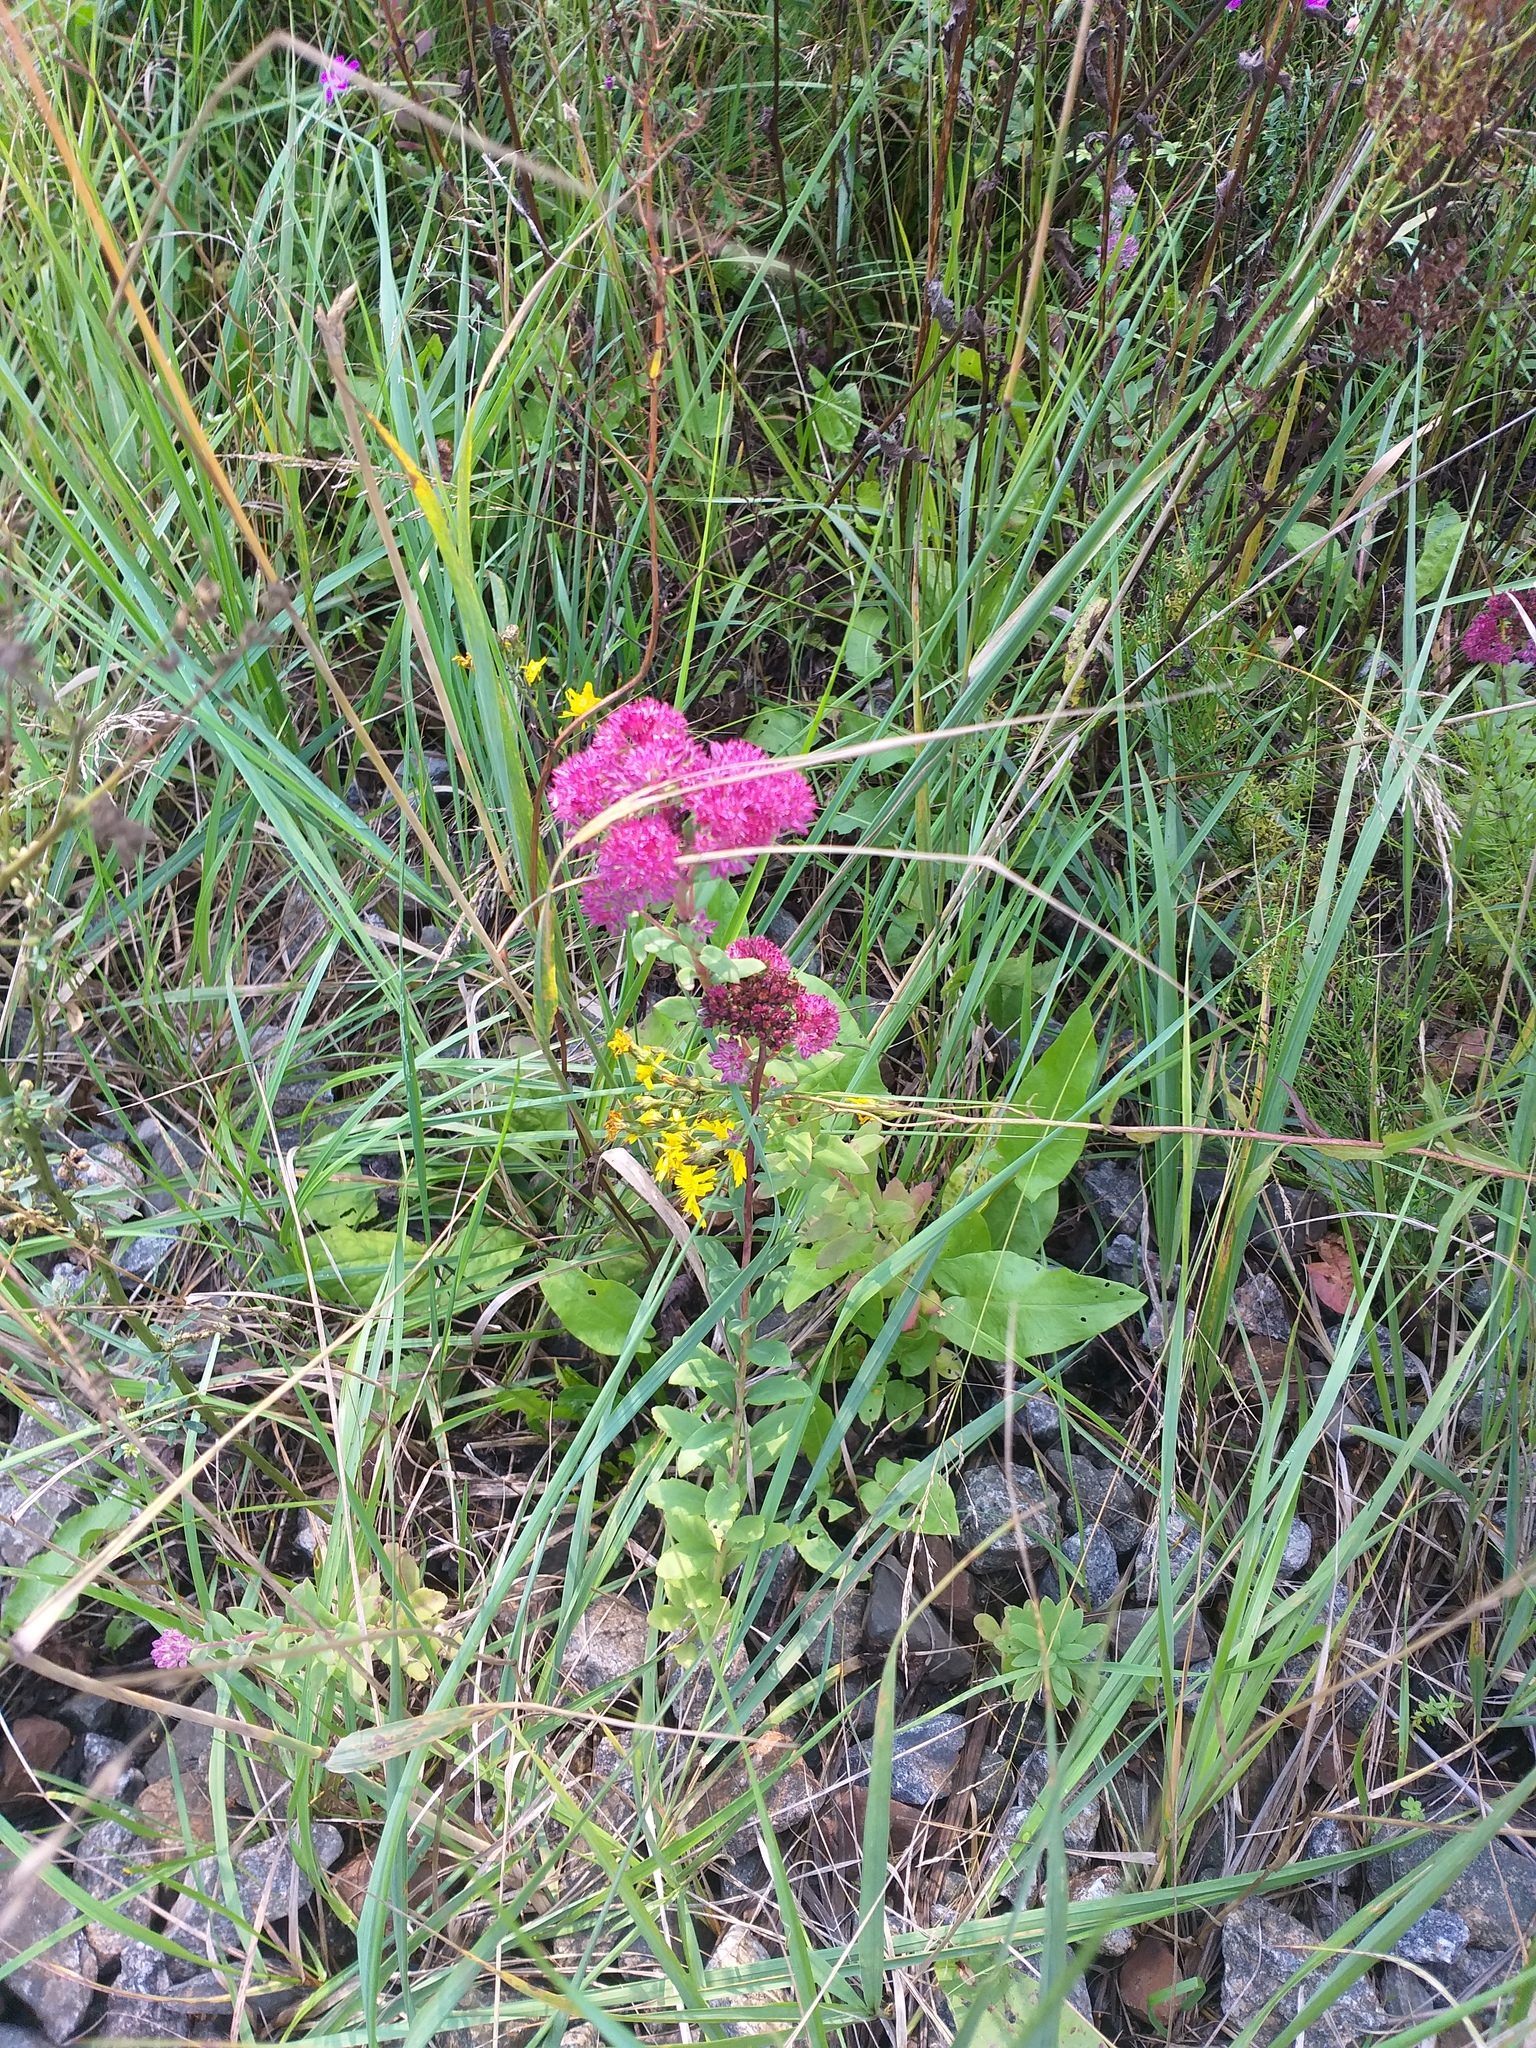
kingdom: Plantae
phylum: Tracheophyta
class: Magnoliopsida
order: Saxifragales
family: Crassulaceae
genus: Hylotelephium
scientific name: Hylotelephium telephium
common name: Live-forever
